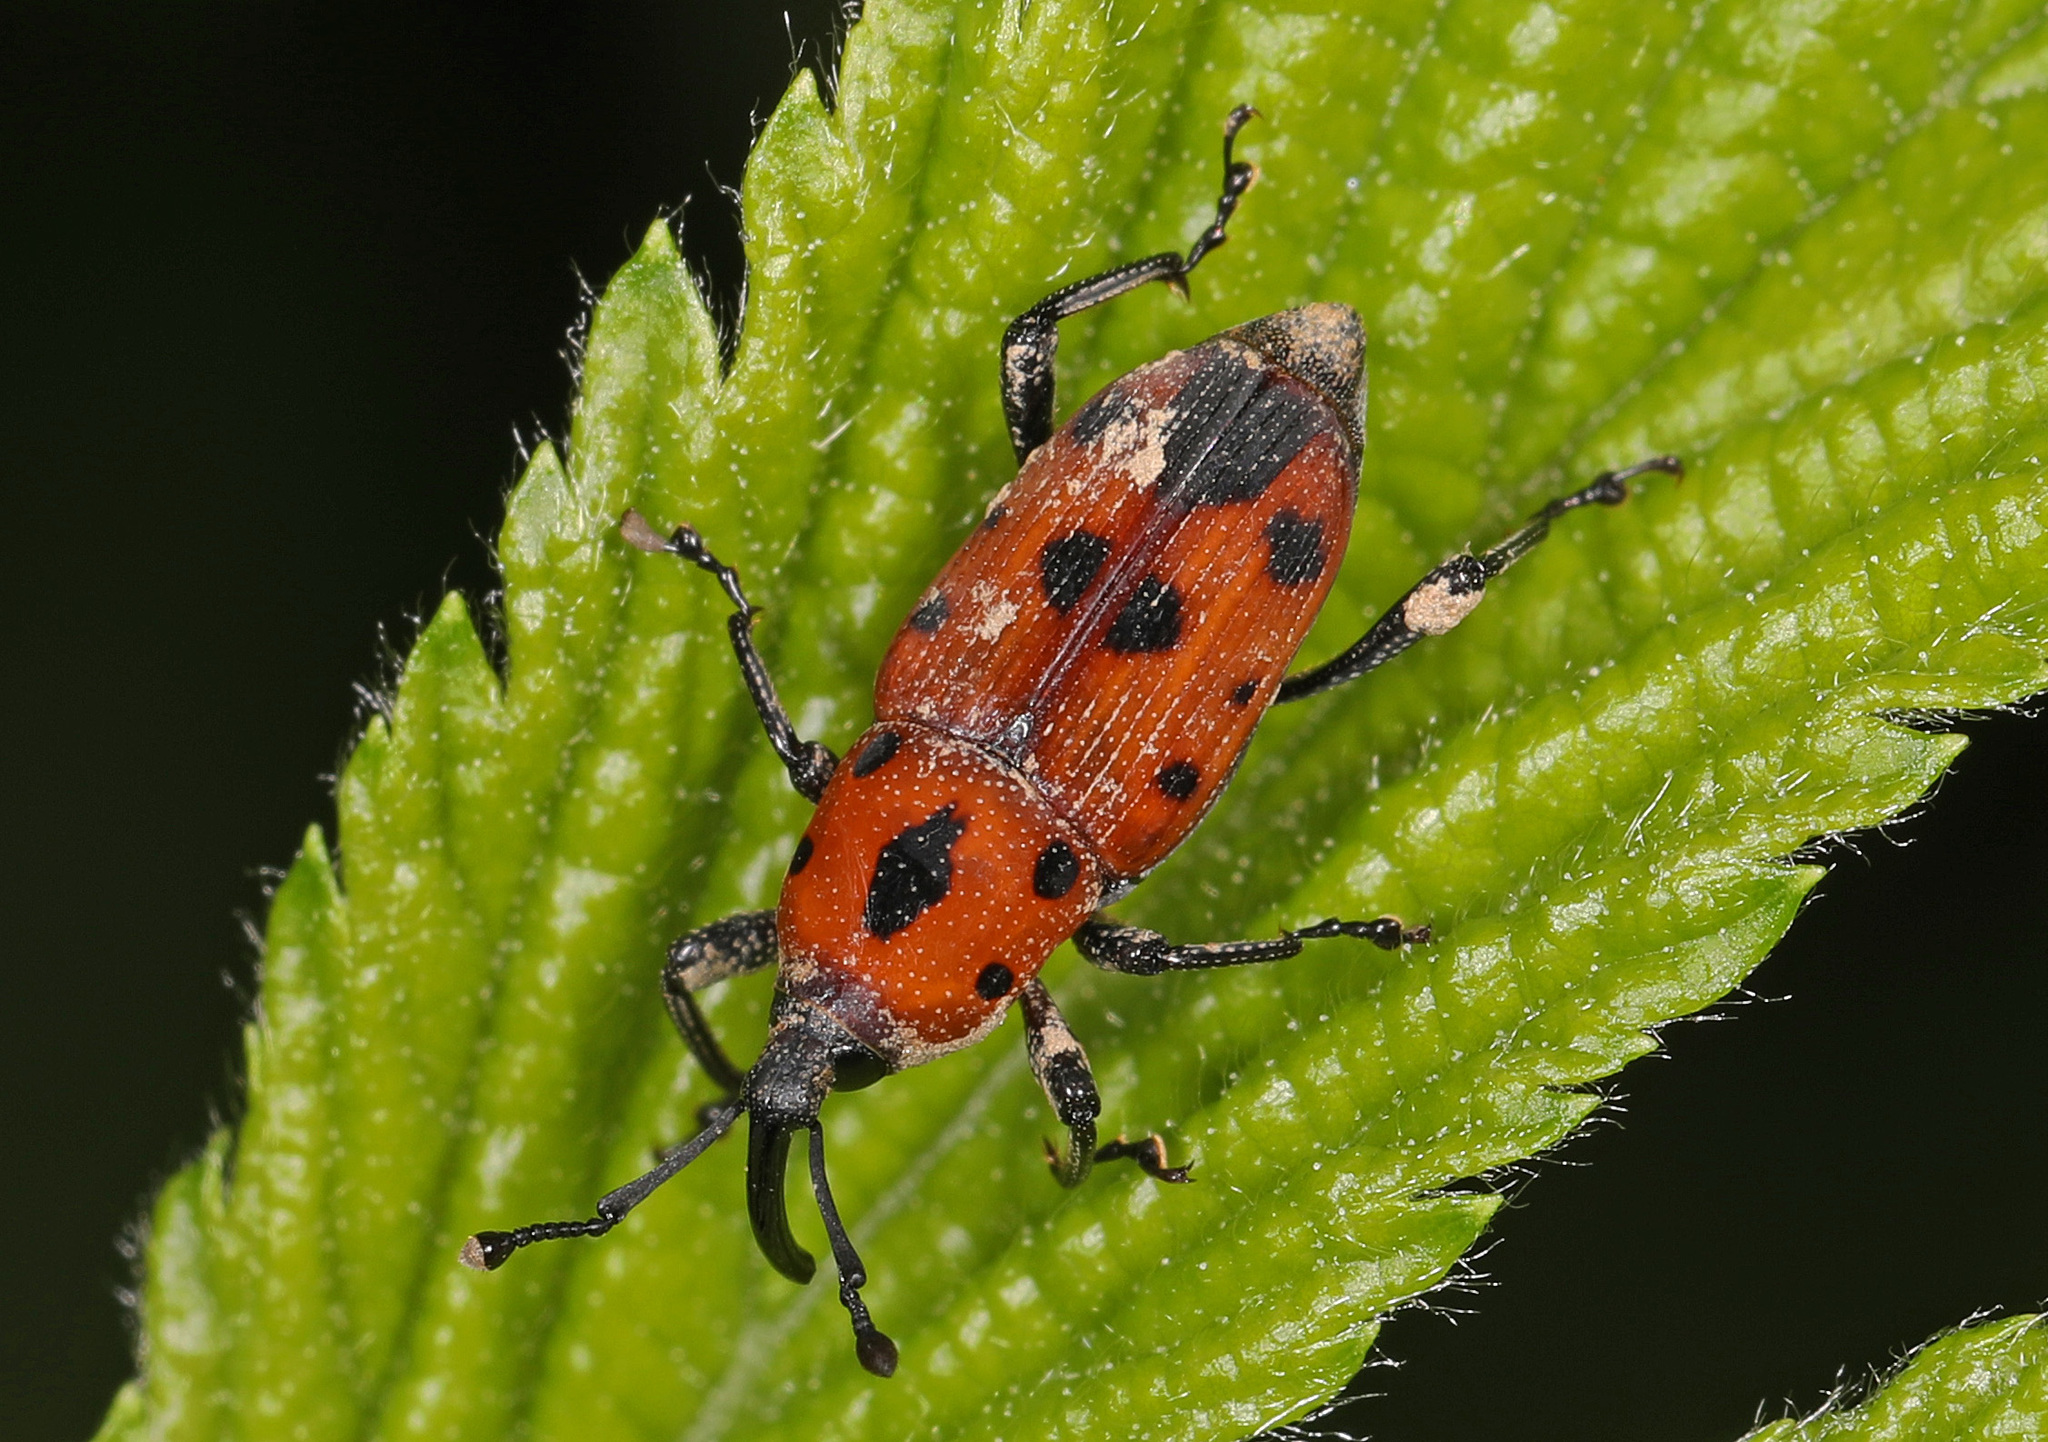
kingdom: Animalia
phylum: Arthropoda
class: Insecta
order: Coleoptera
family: Dryophthoridae
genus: Rhodobaenus
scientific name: Rhodobaenus quinquepunctatus
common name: Cocklebur weevil
